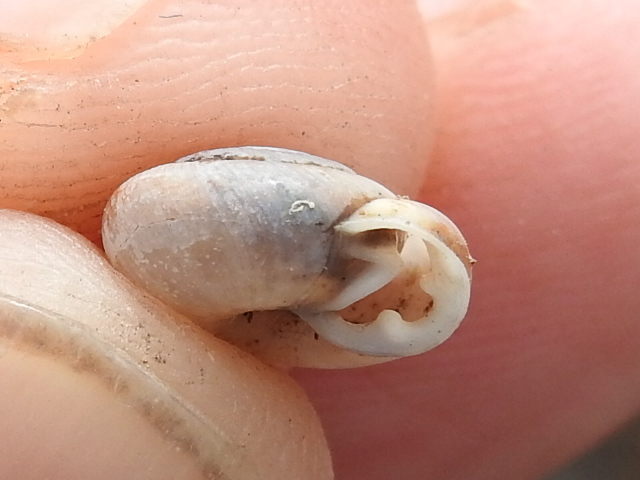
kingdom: Animalia
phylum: Mollusca
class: Gastropoda
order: Stylommatophora
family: Polygyridae
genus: Linisa
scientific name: Linisa texasiana
